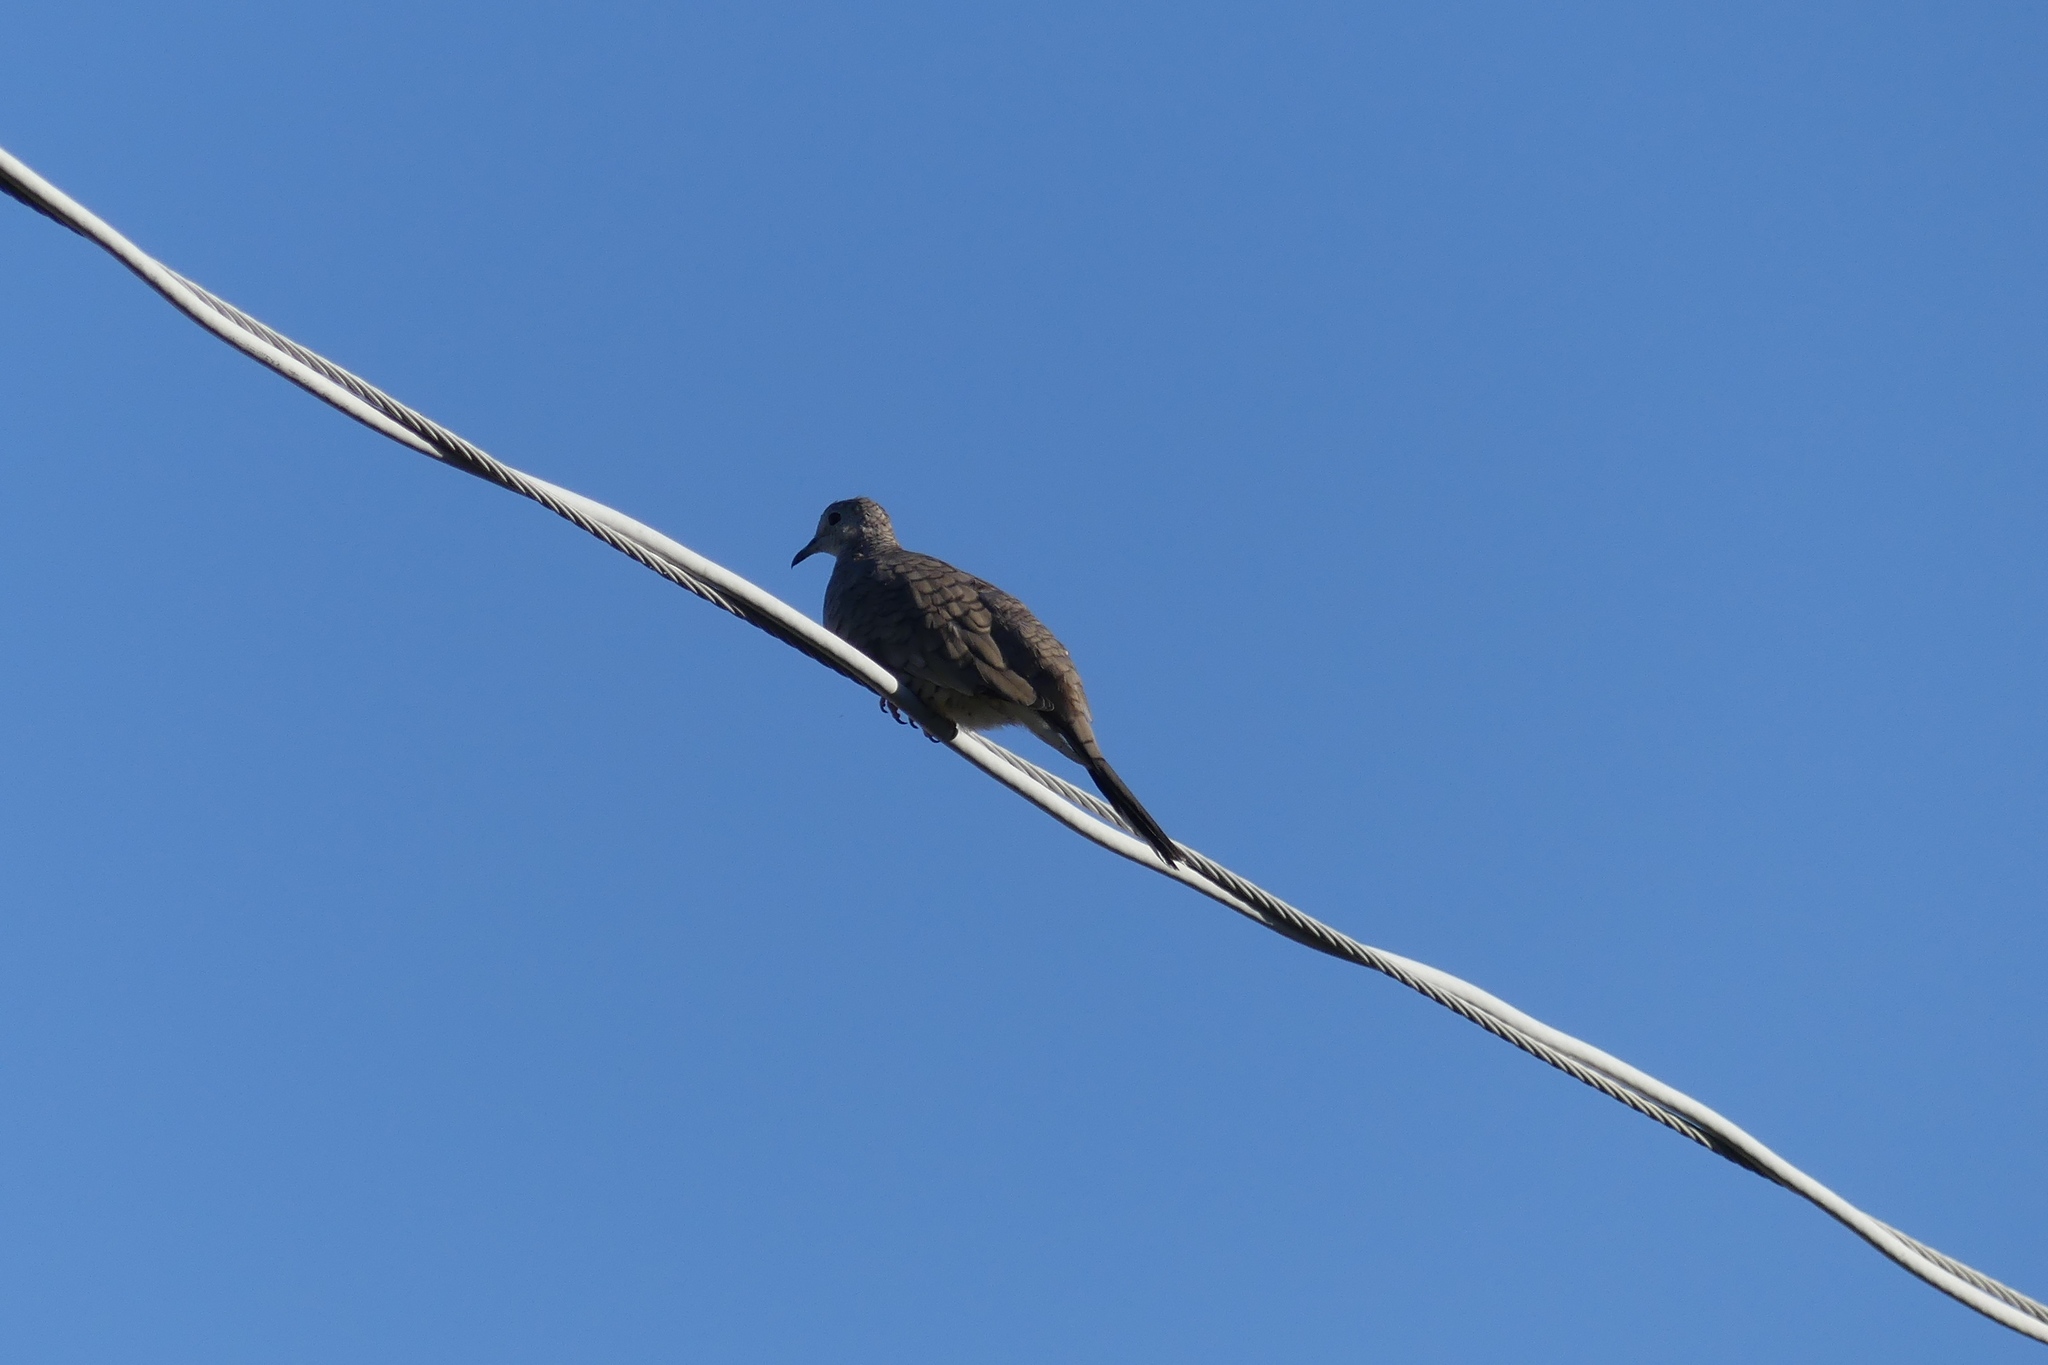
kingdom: Animalia
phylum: Chordata
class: Aves
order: Columbiformes
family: Columbidae
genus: Columbina
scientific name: Columbina inca
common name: Inca dove
